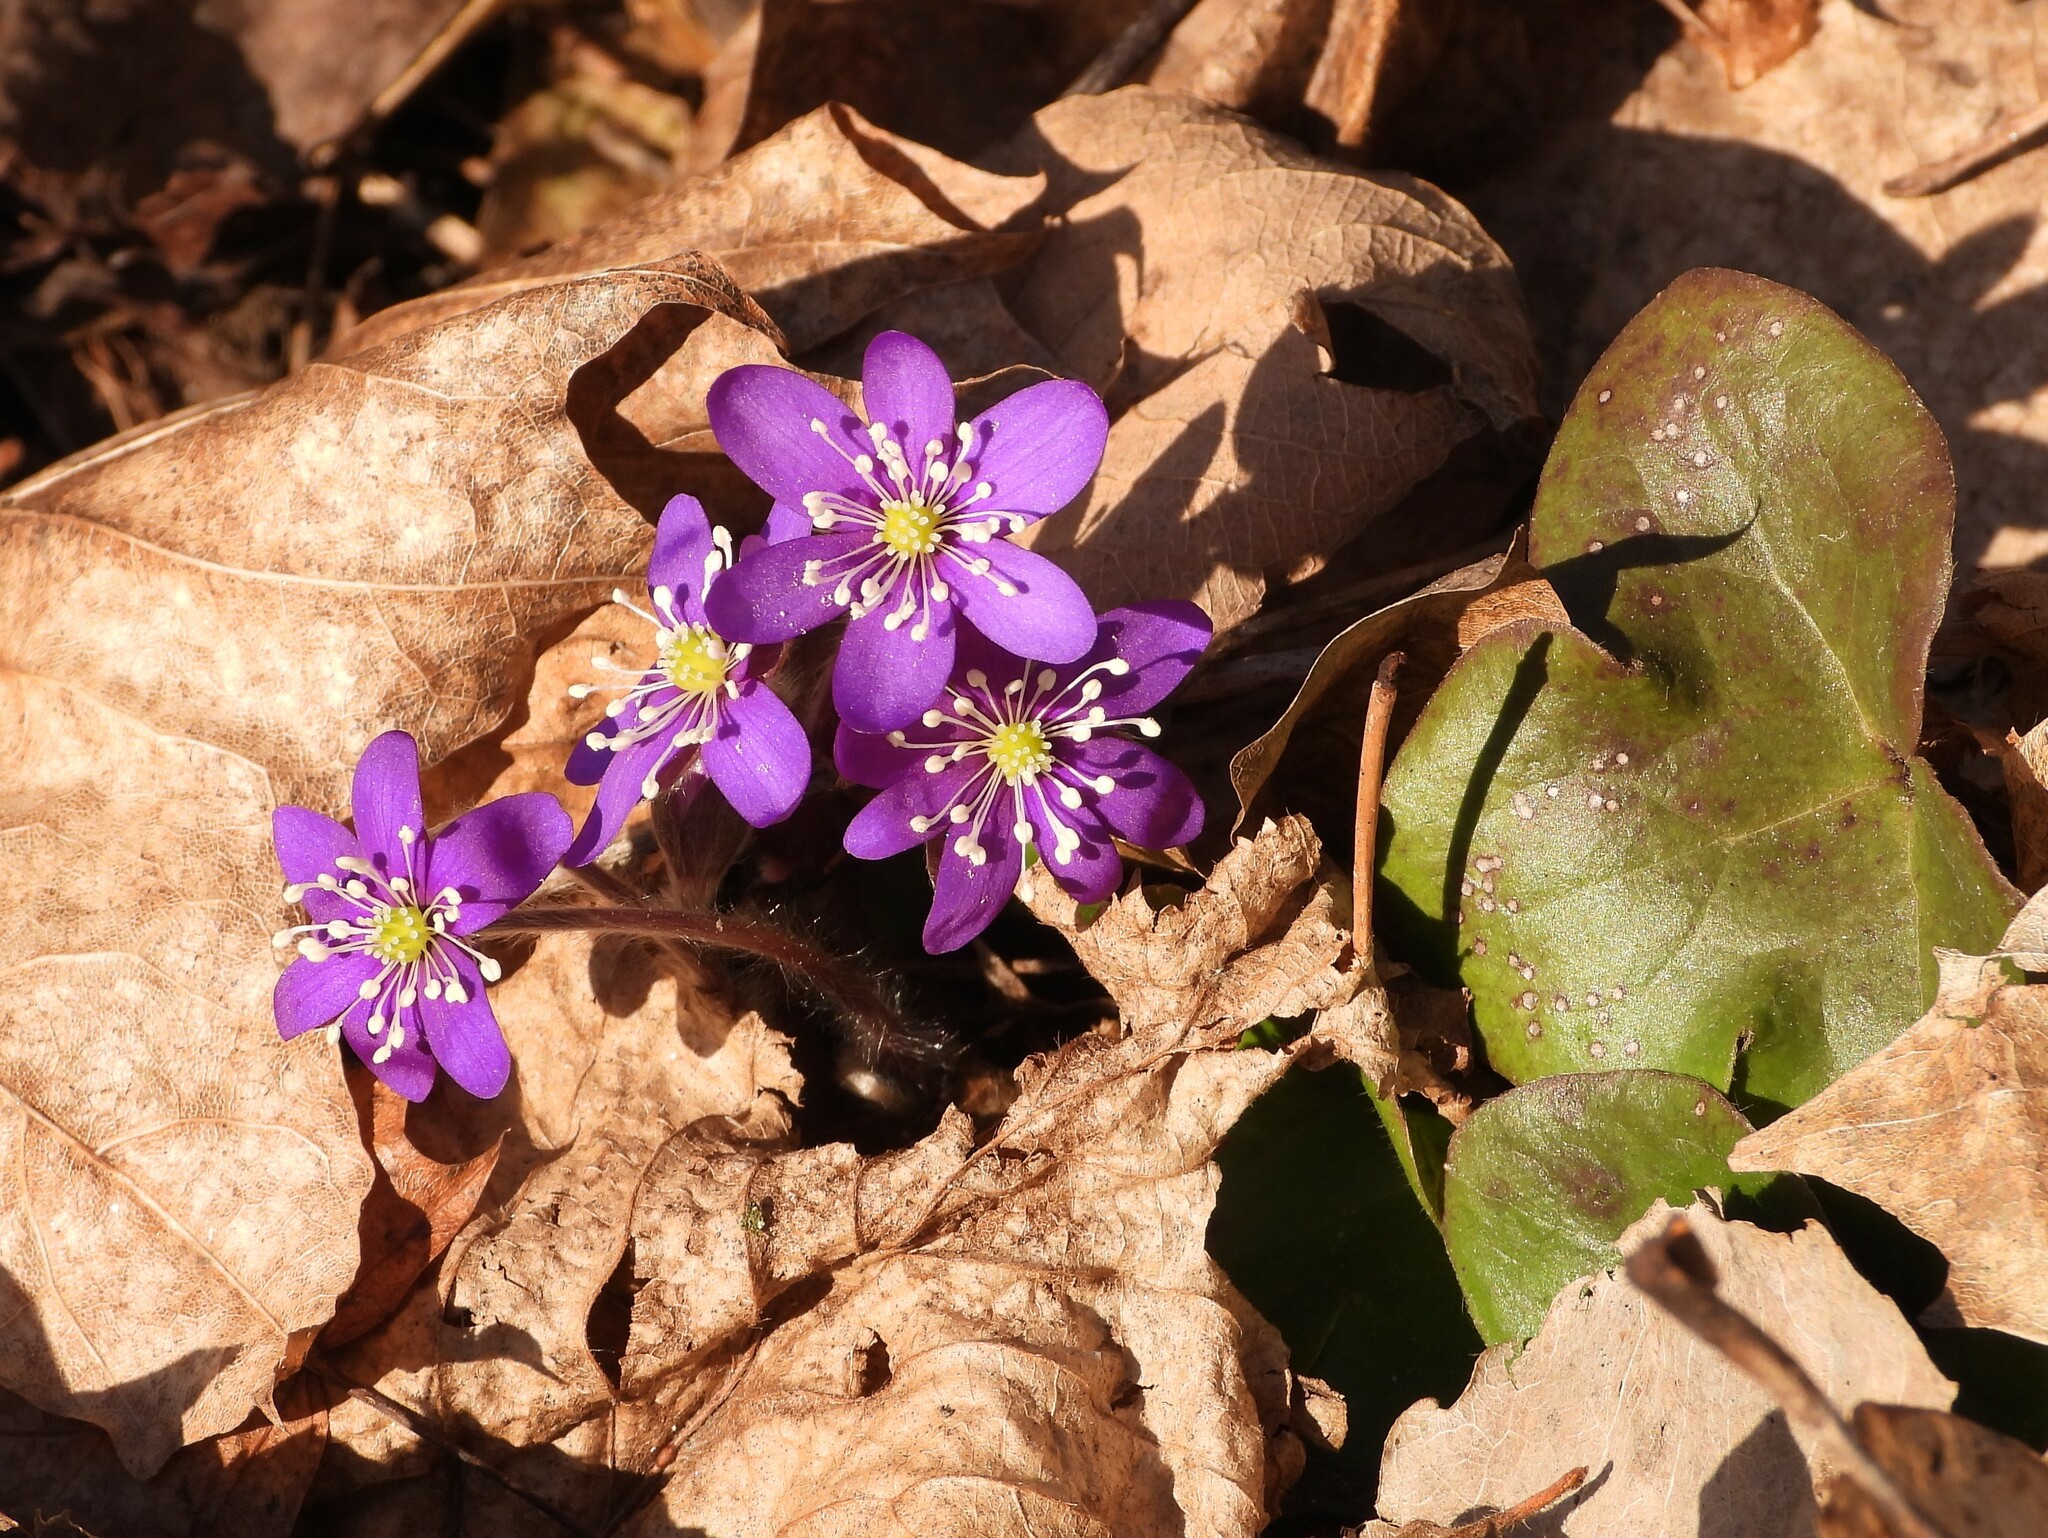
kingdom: Plantae
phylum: Tracheophyta
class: Magnoliopsida
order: Ranunculales
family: Ranunculaceae
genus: Hepatica
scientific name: Hepatica nobilis
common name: Liverleaf
